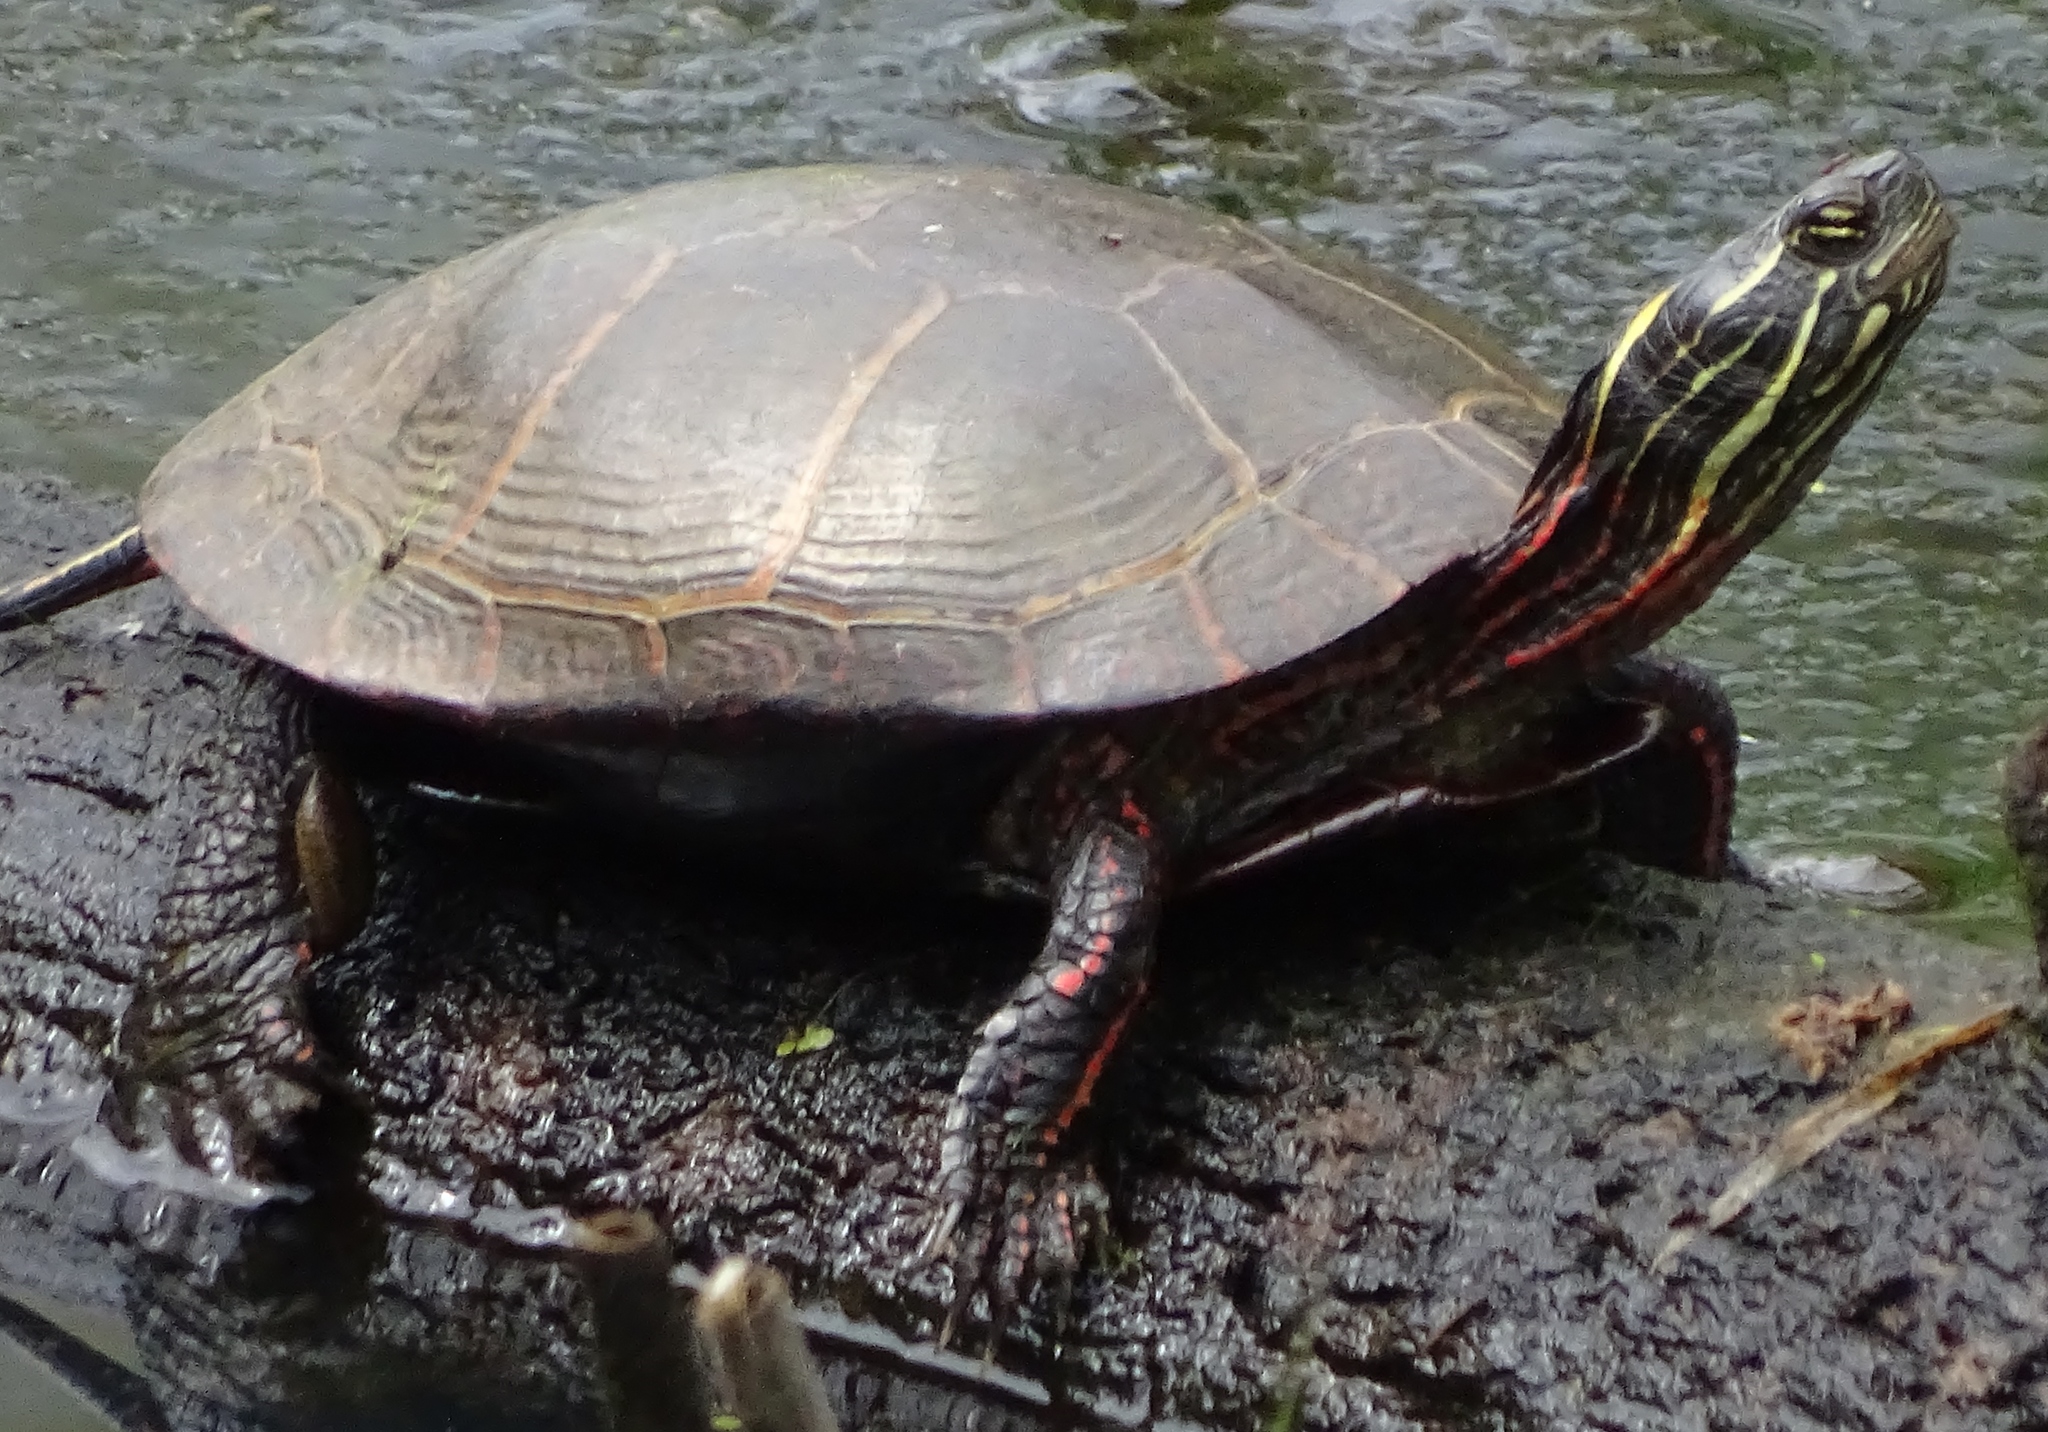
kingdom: Animalia
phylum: Chordata
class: Testudines
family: Emydidae
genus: Chrysemys
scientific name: Chrysemys picta
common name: Painted turtle
